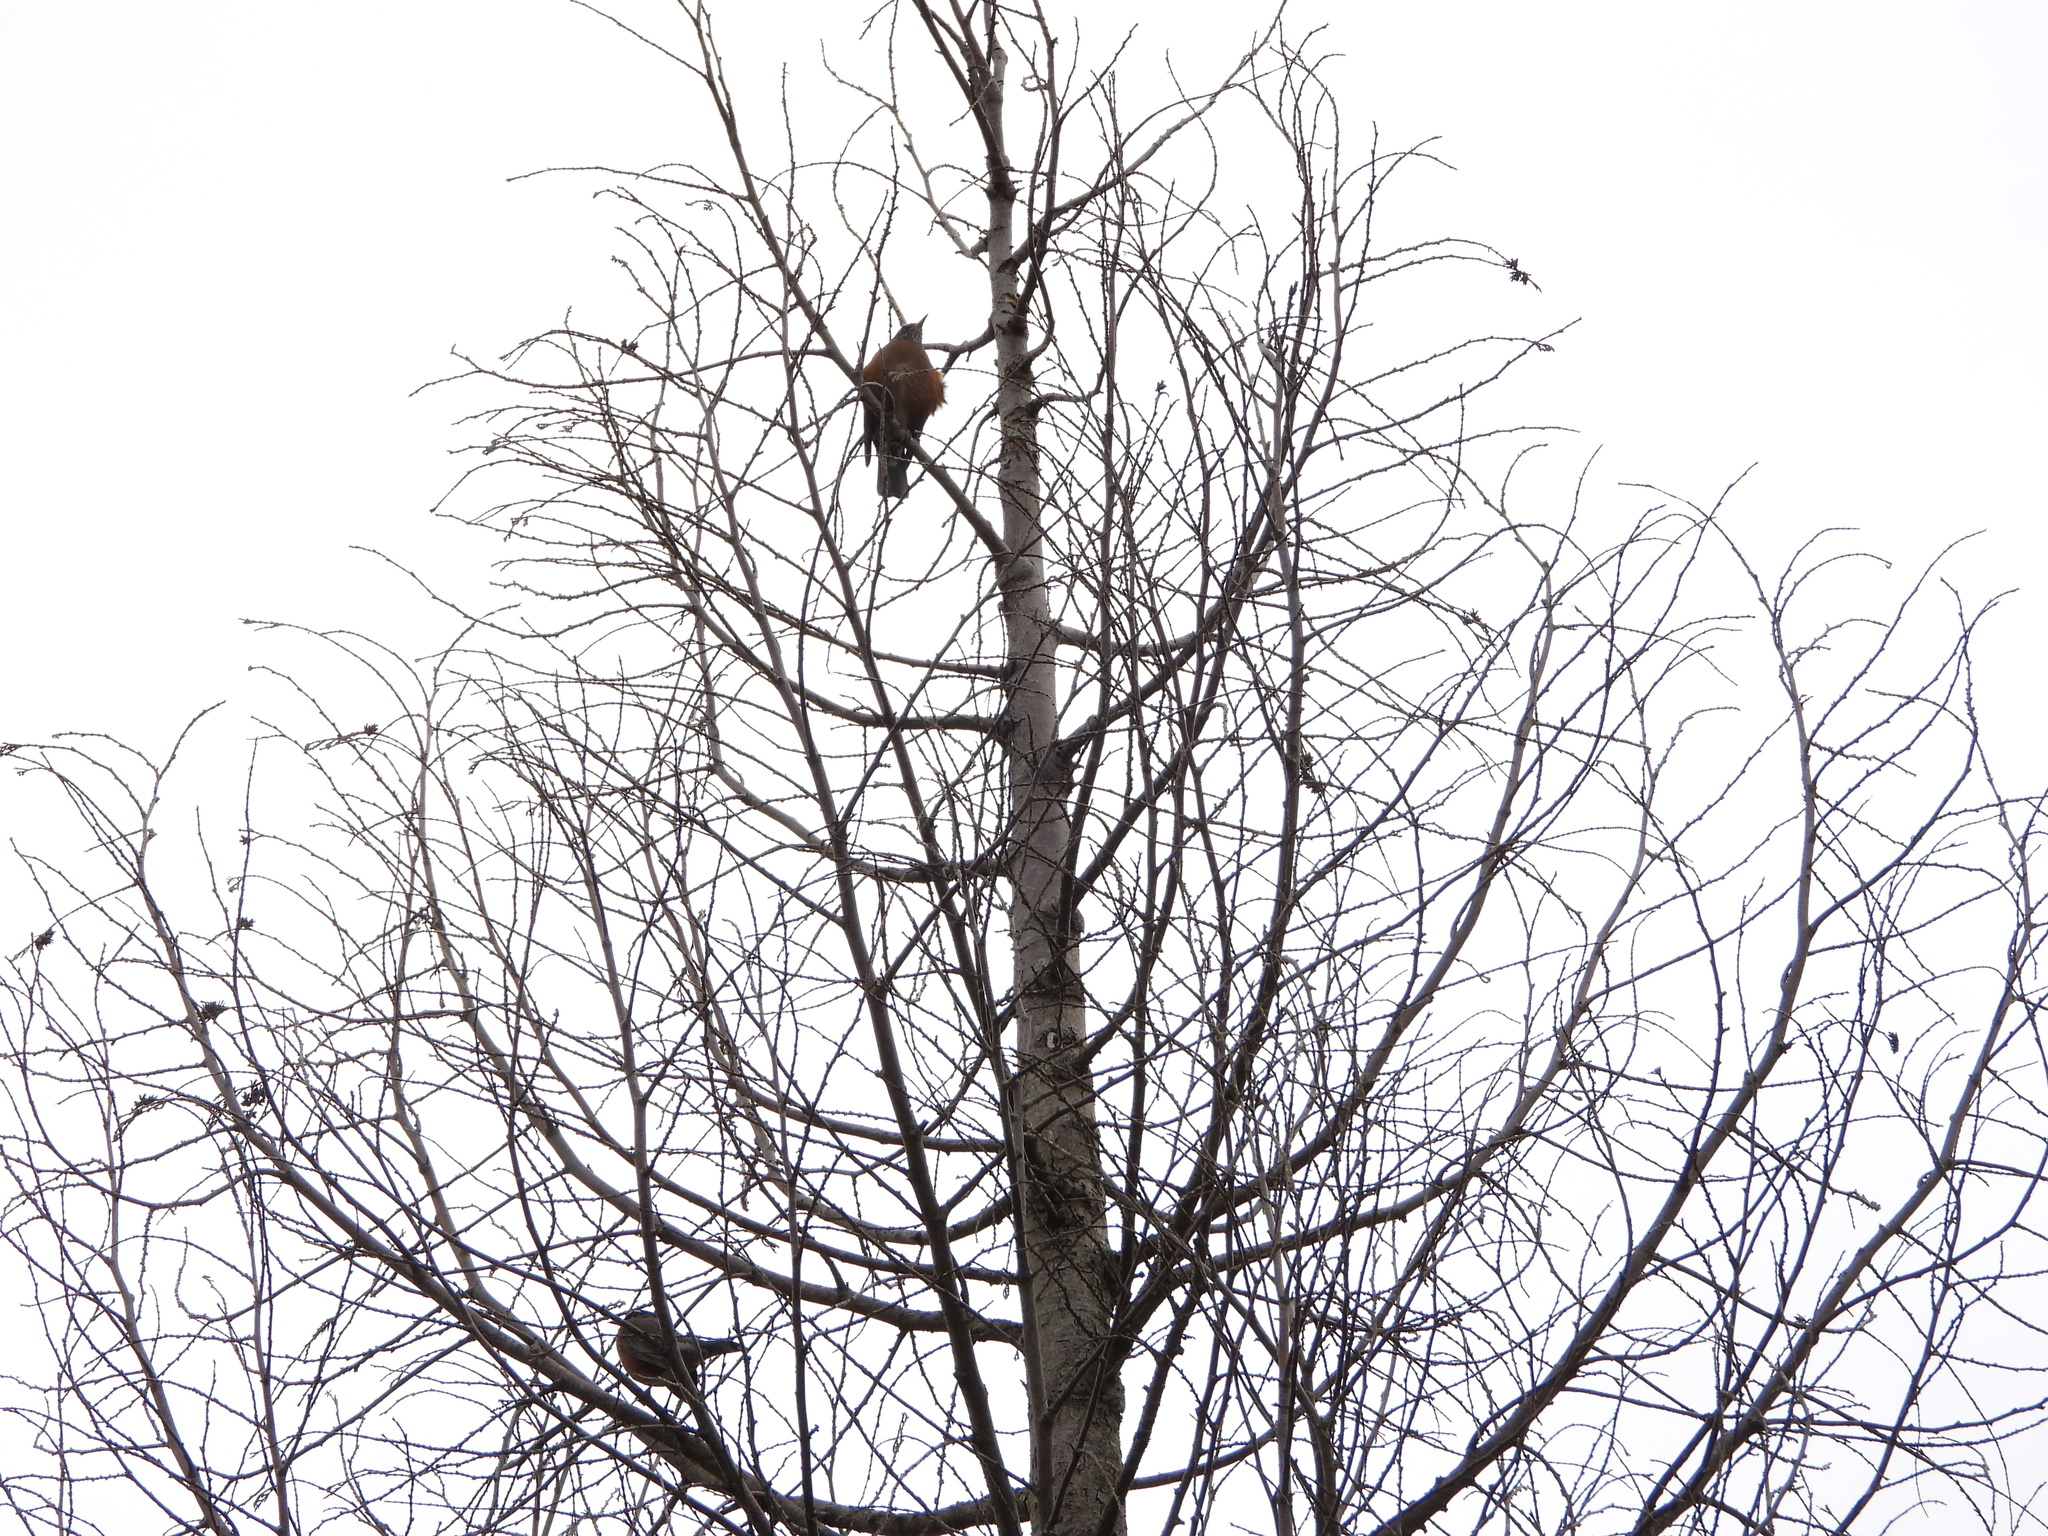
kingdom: Animalia
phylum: Chordata
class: Aves
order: Passeriformes
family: Turdidae
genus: Turdus
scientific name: Turdus migratorius
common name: American robin
